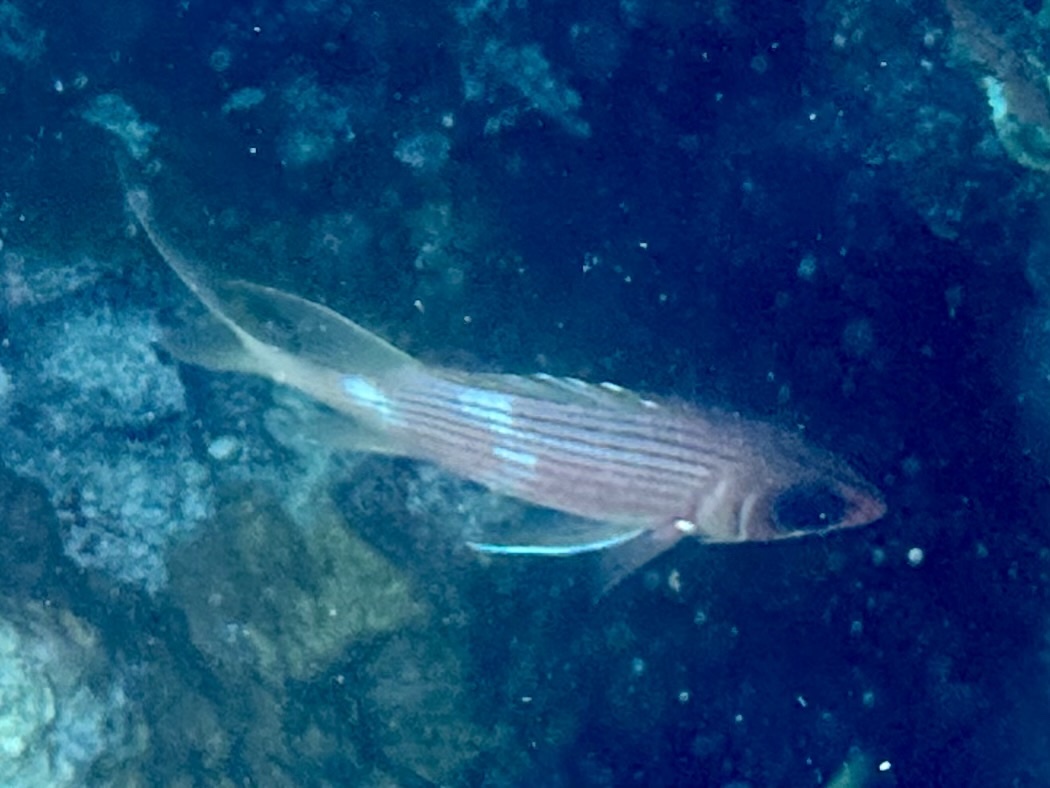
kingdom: Animalia
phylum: Chordata
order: Beryciformes
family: Holocentridae
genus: Holocentrus
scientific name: Holocentrus rufus
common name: Longspine squirrelfish
